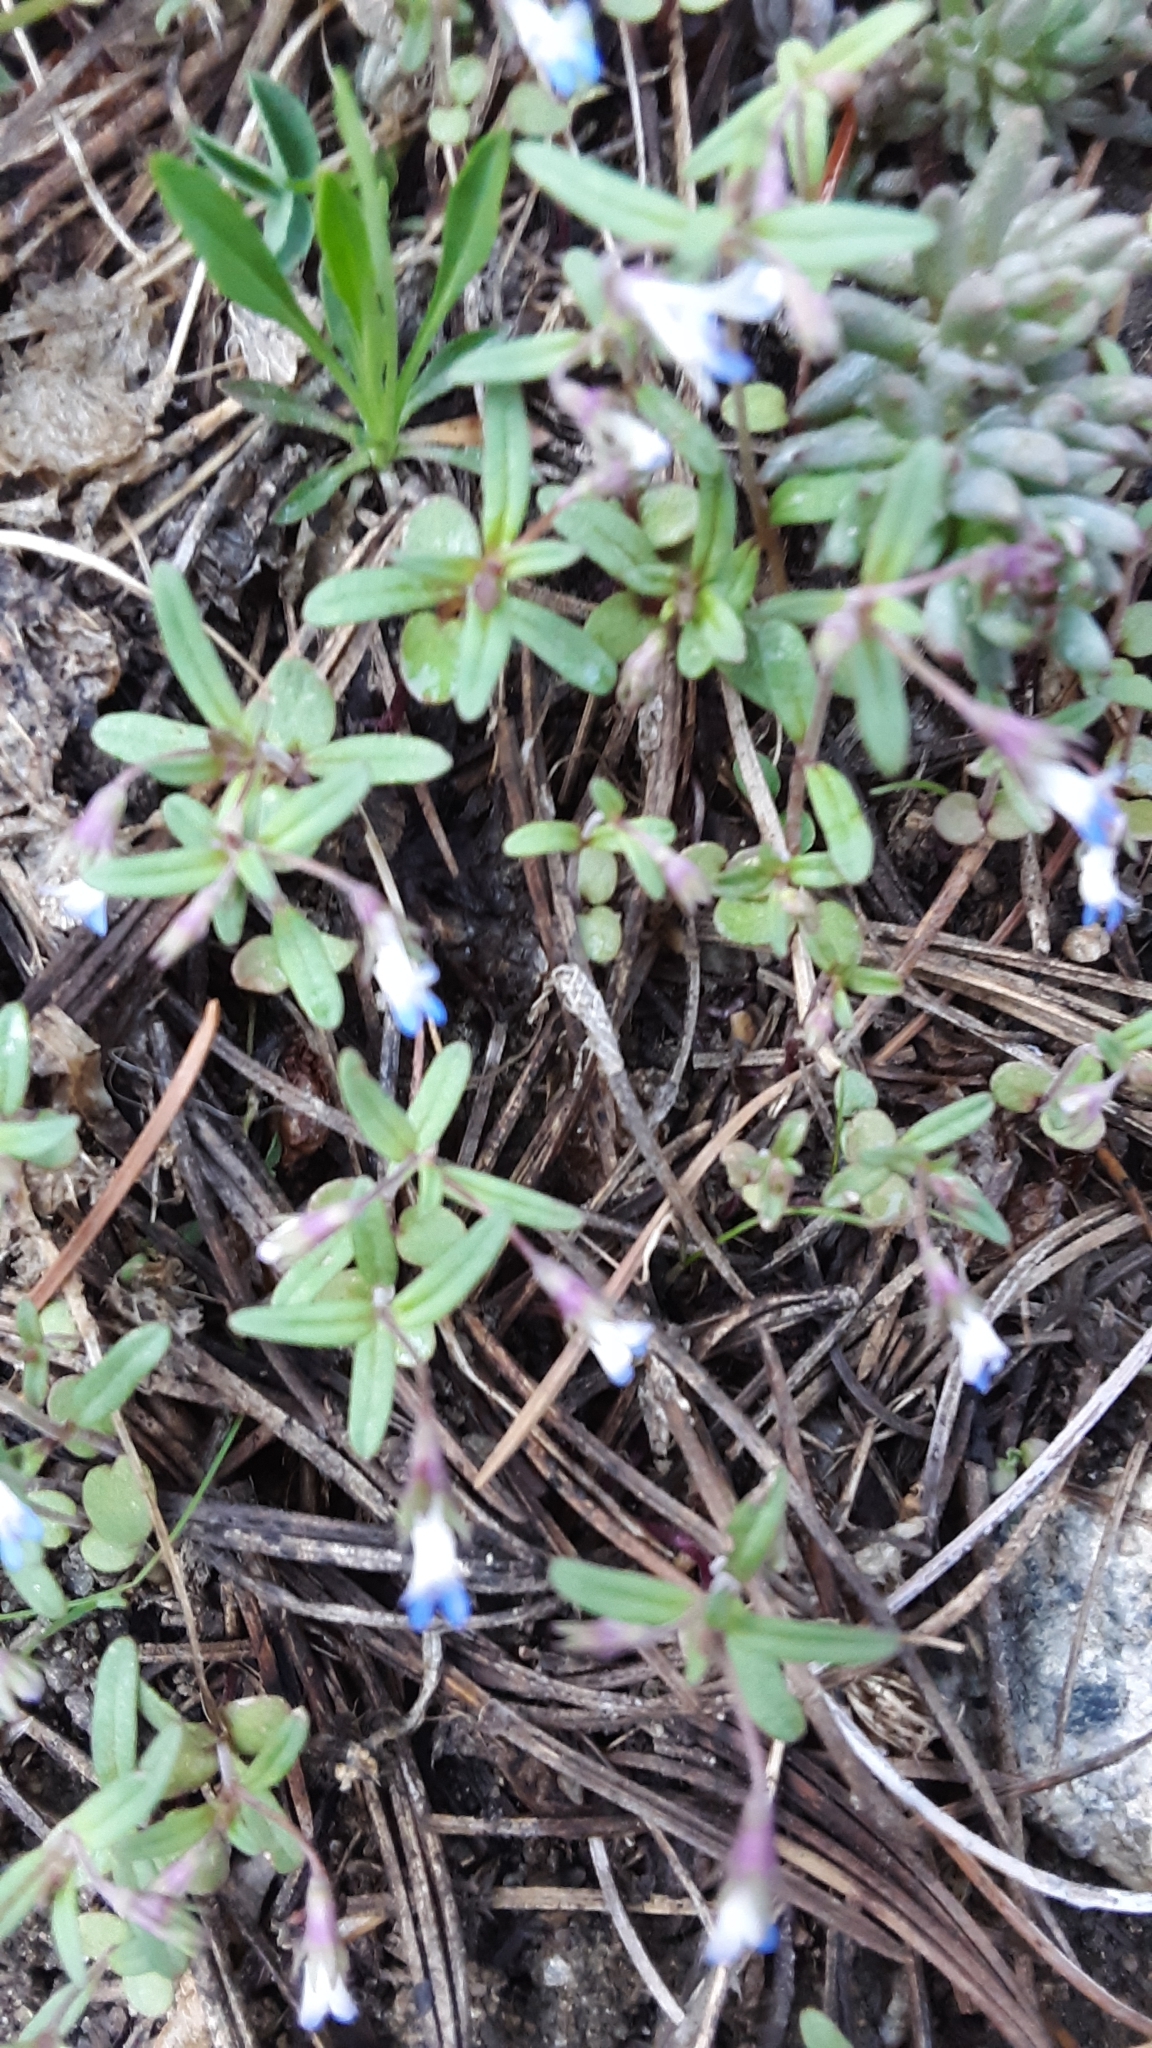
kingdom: Plantae
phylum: Tracheophyta
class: Magnoliopsida
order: Lamiales
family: Plantaginaceae
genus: Collinsia
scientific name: Collinsia parviflora
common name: Blue-lips
